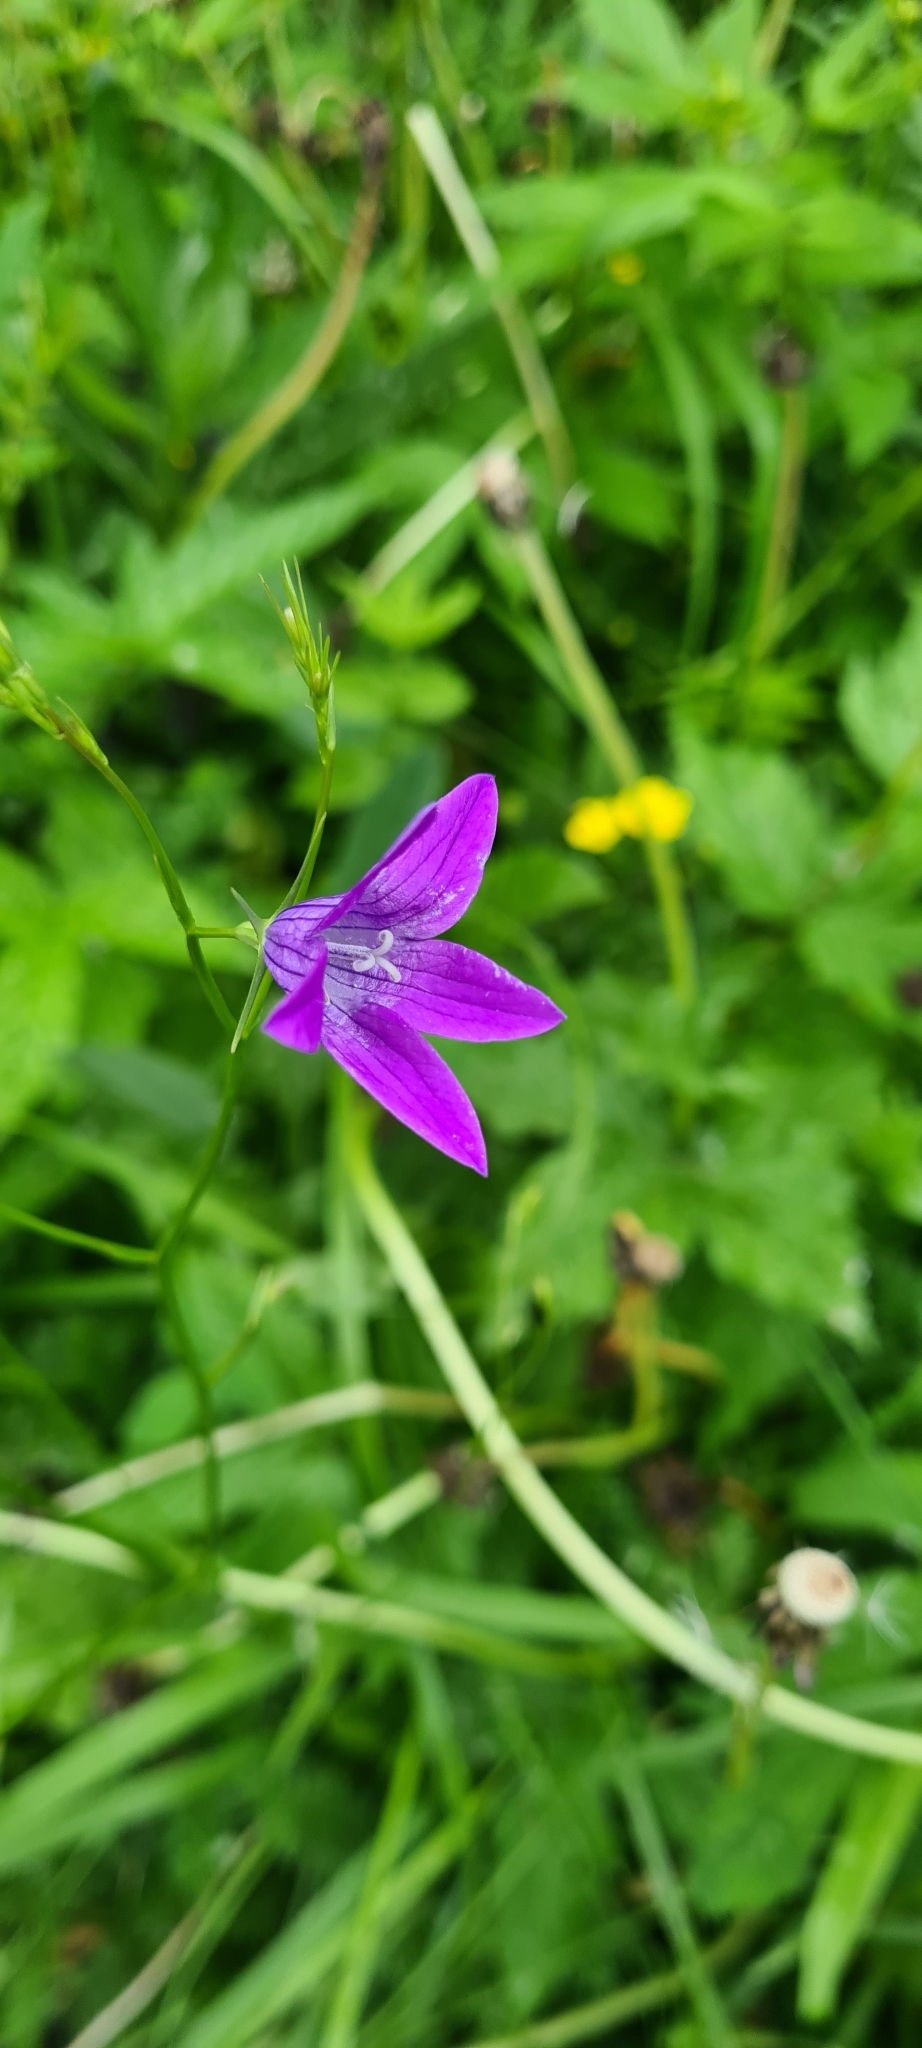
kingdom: Plantae
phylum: Tracheophyta
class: Magnoliopsida
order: Asterales
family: Campanulaceae
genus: Campanula
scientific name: Campanula patula
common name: Spreading bellflower
